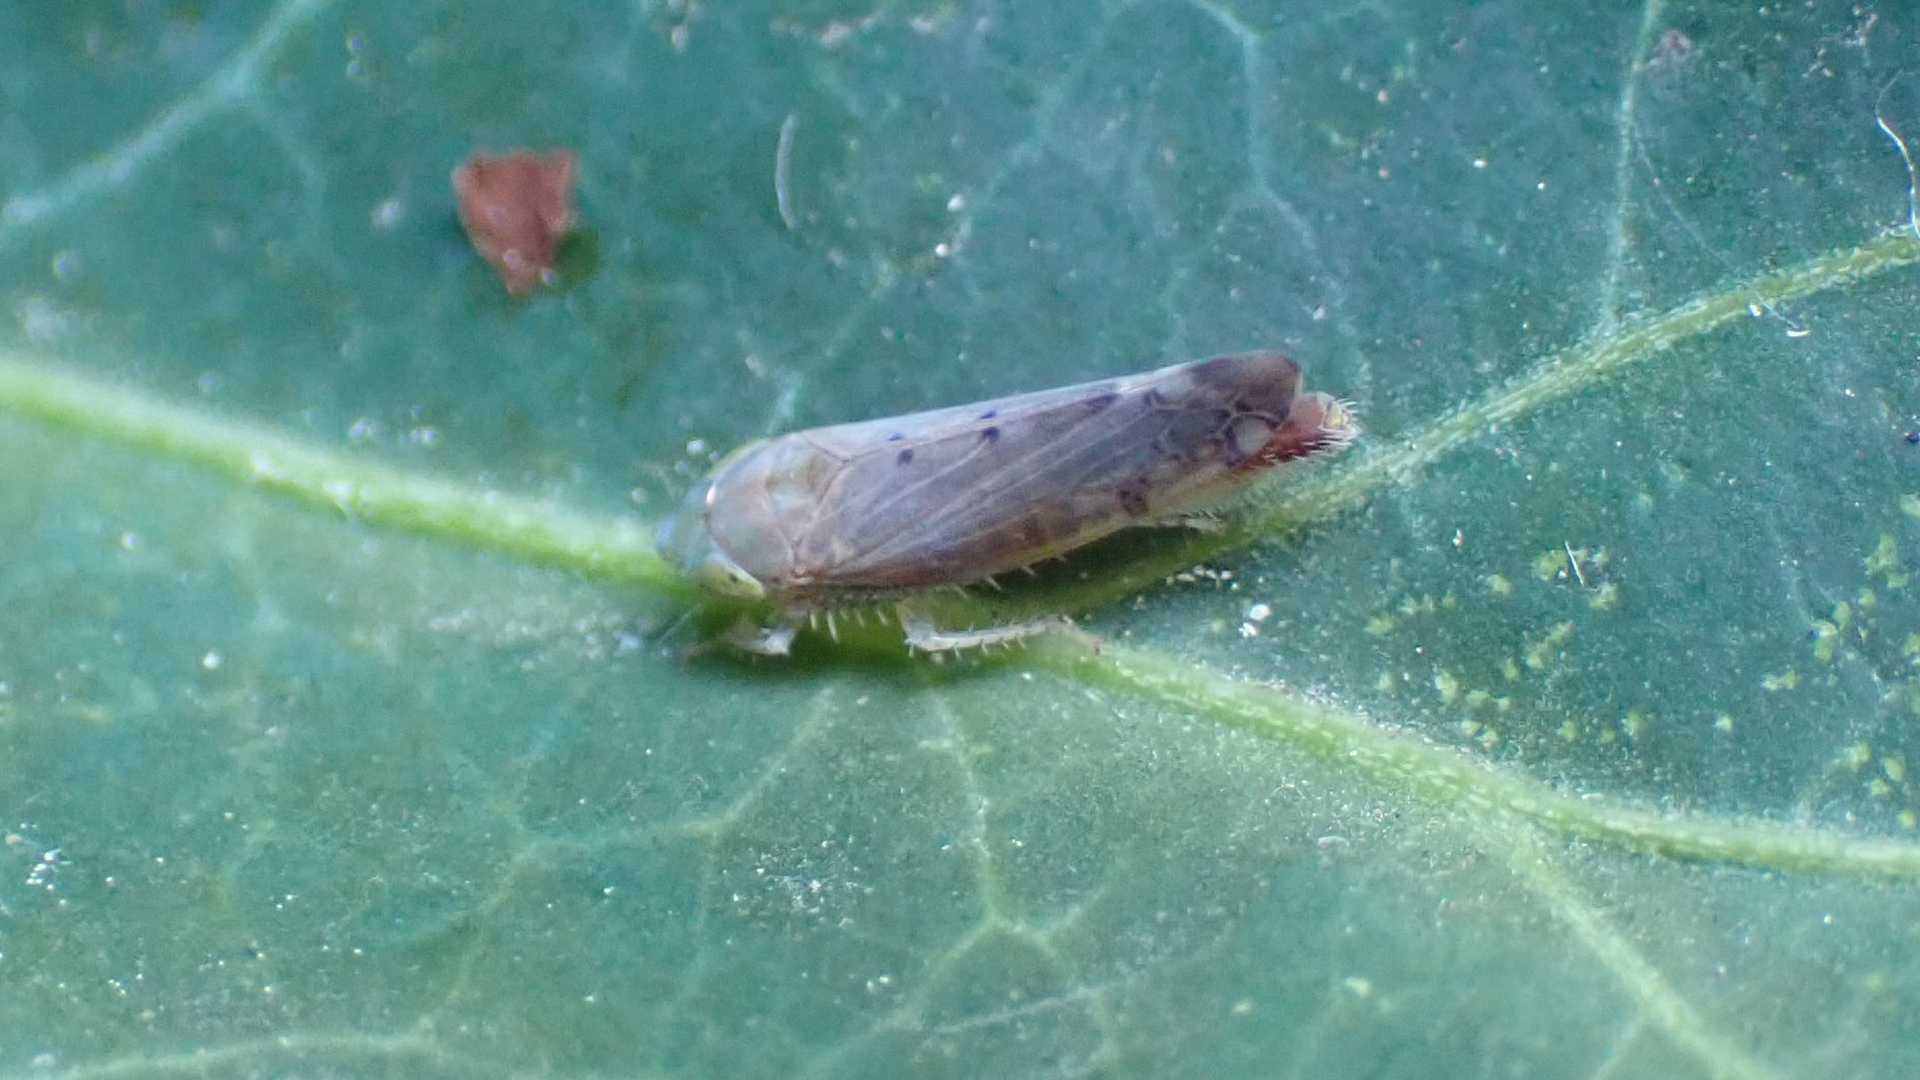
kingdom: Animalia
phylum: Arthropoda
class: Insecta
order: Hemiptera
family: Cicadellidae
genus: Synophropsis
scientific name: Synophropsis lauri
